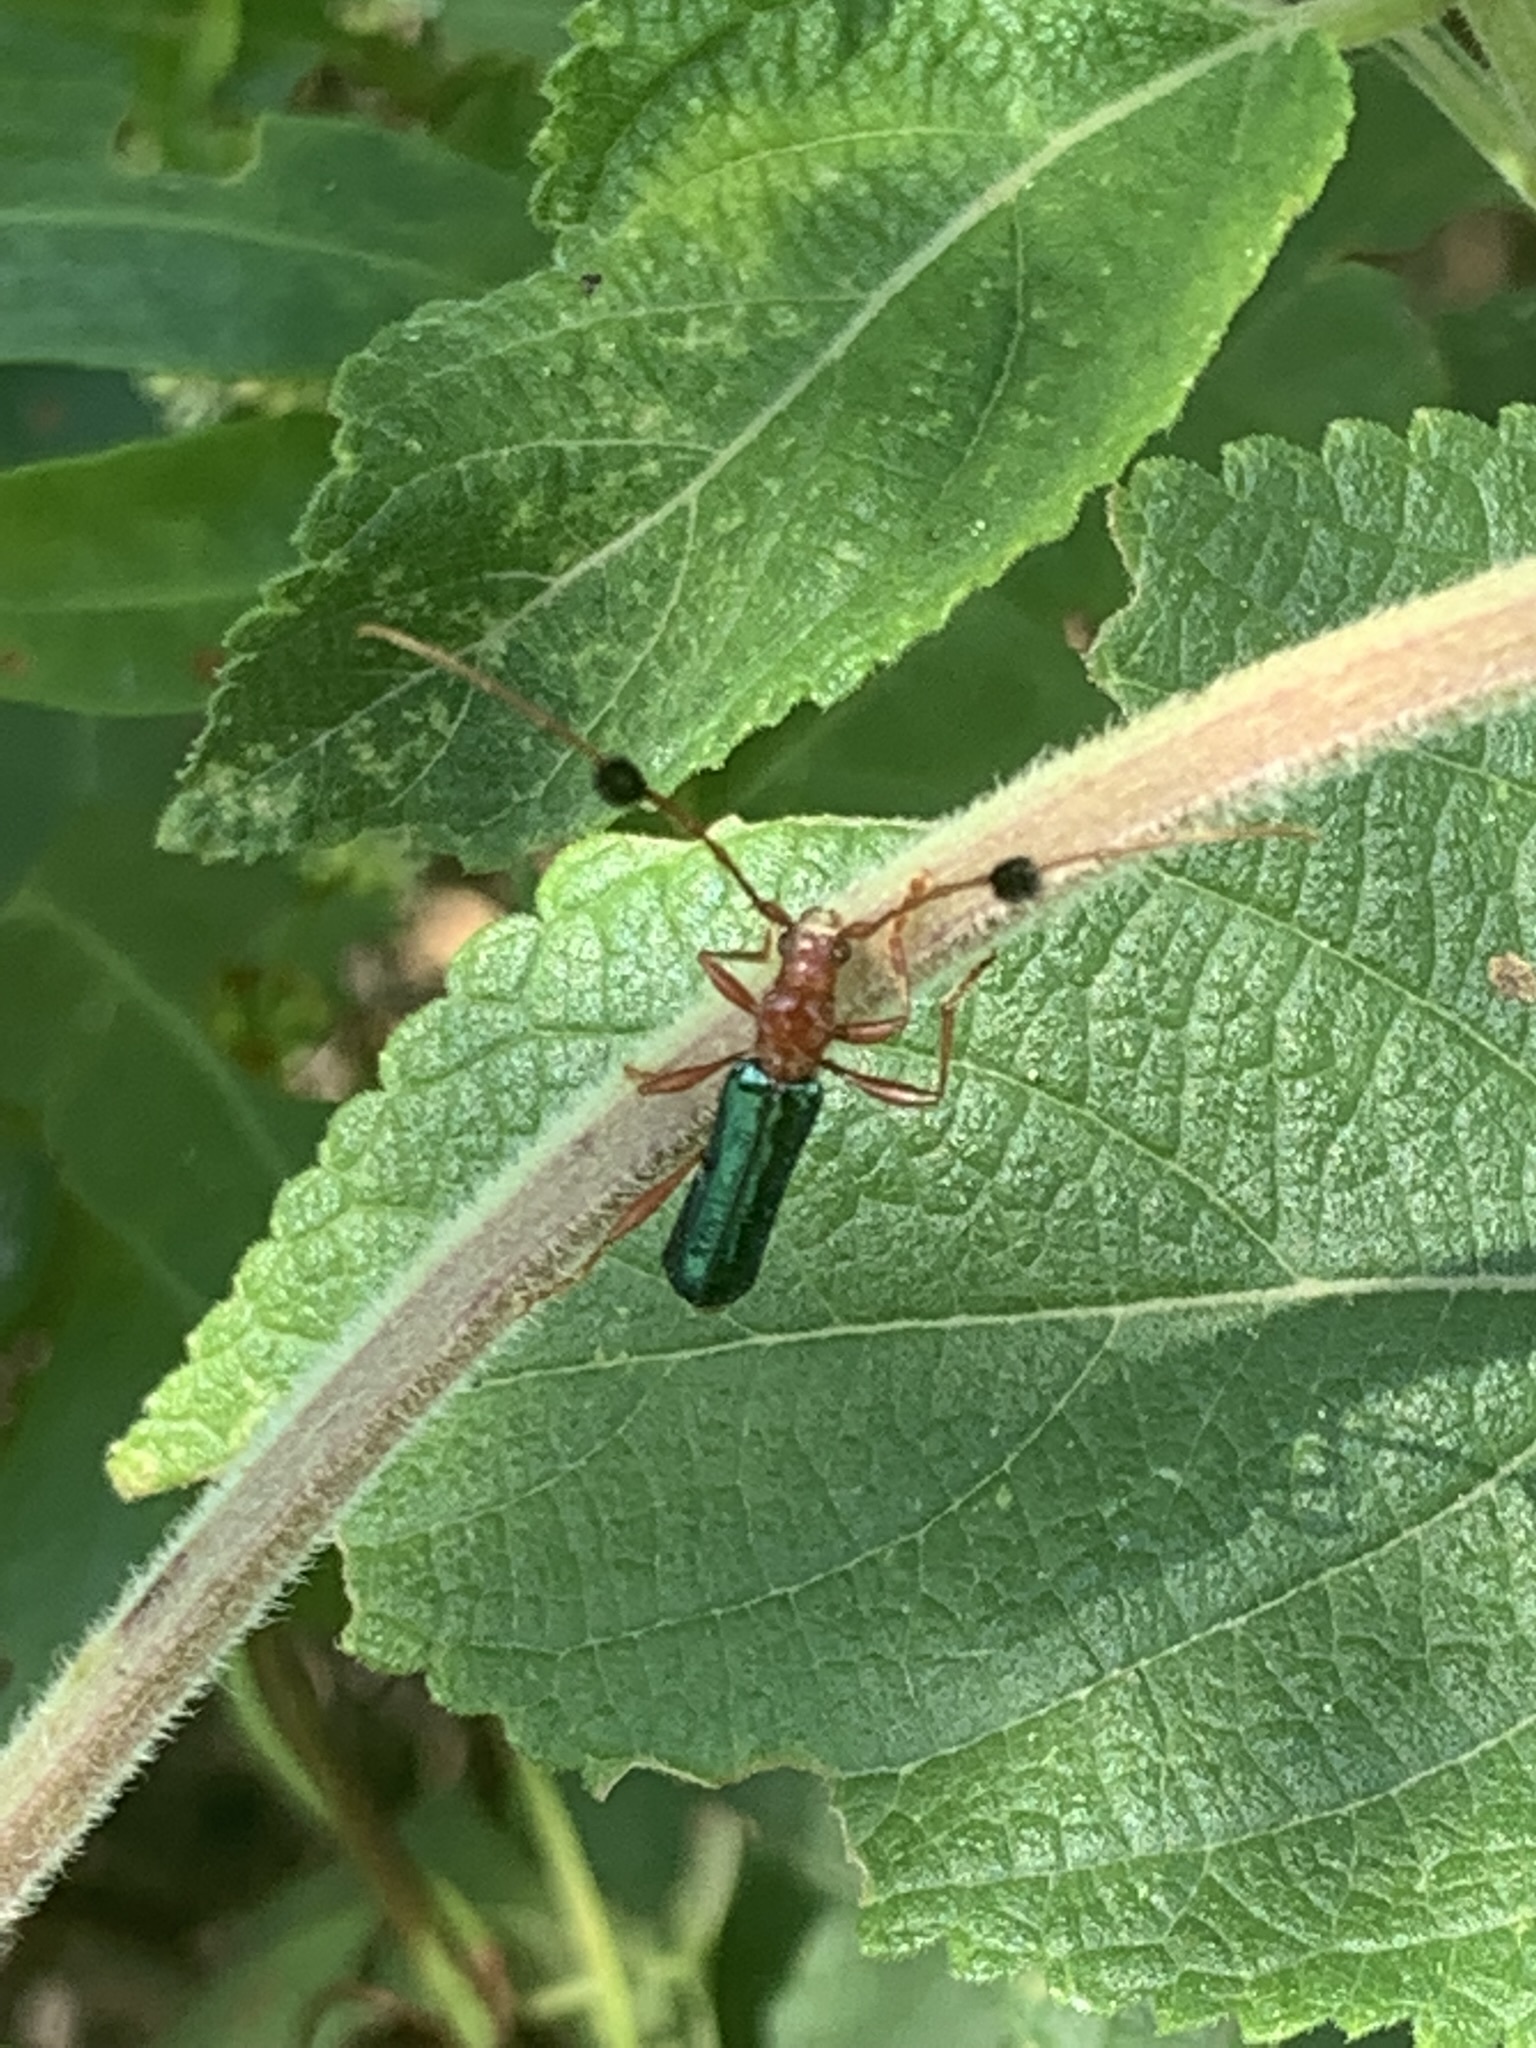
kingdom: Animalia
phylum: Arthropoda
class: Insecta
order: Coleoptera
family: Cerambycidae
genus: Paromoeocerus
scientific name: Paromoeocerus barbicornis
